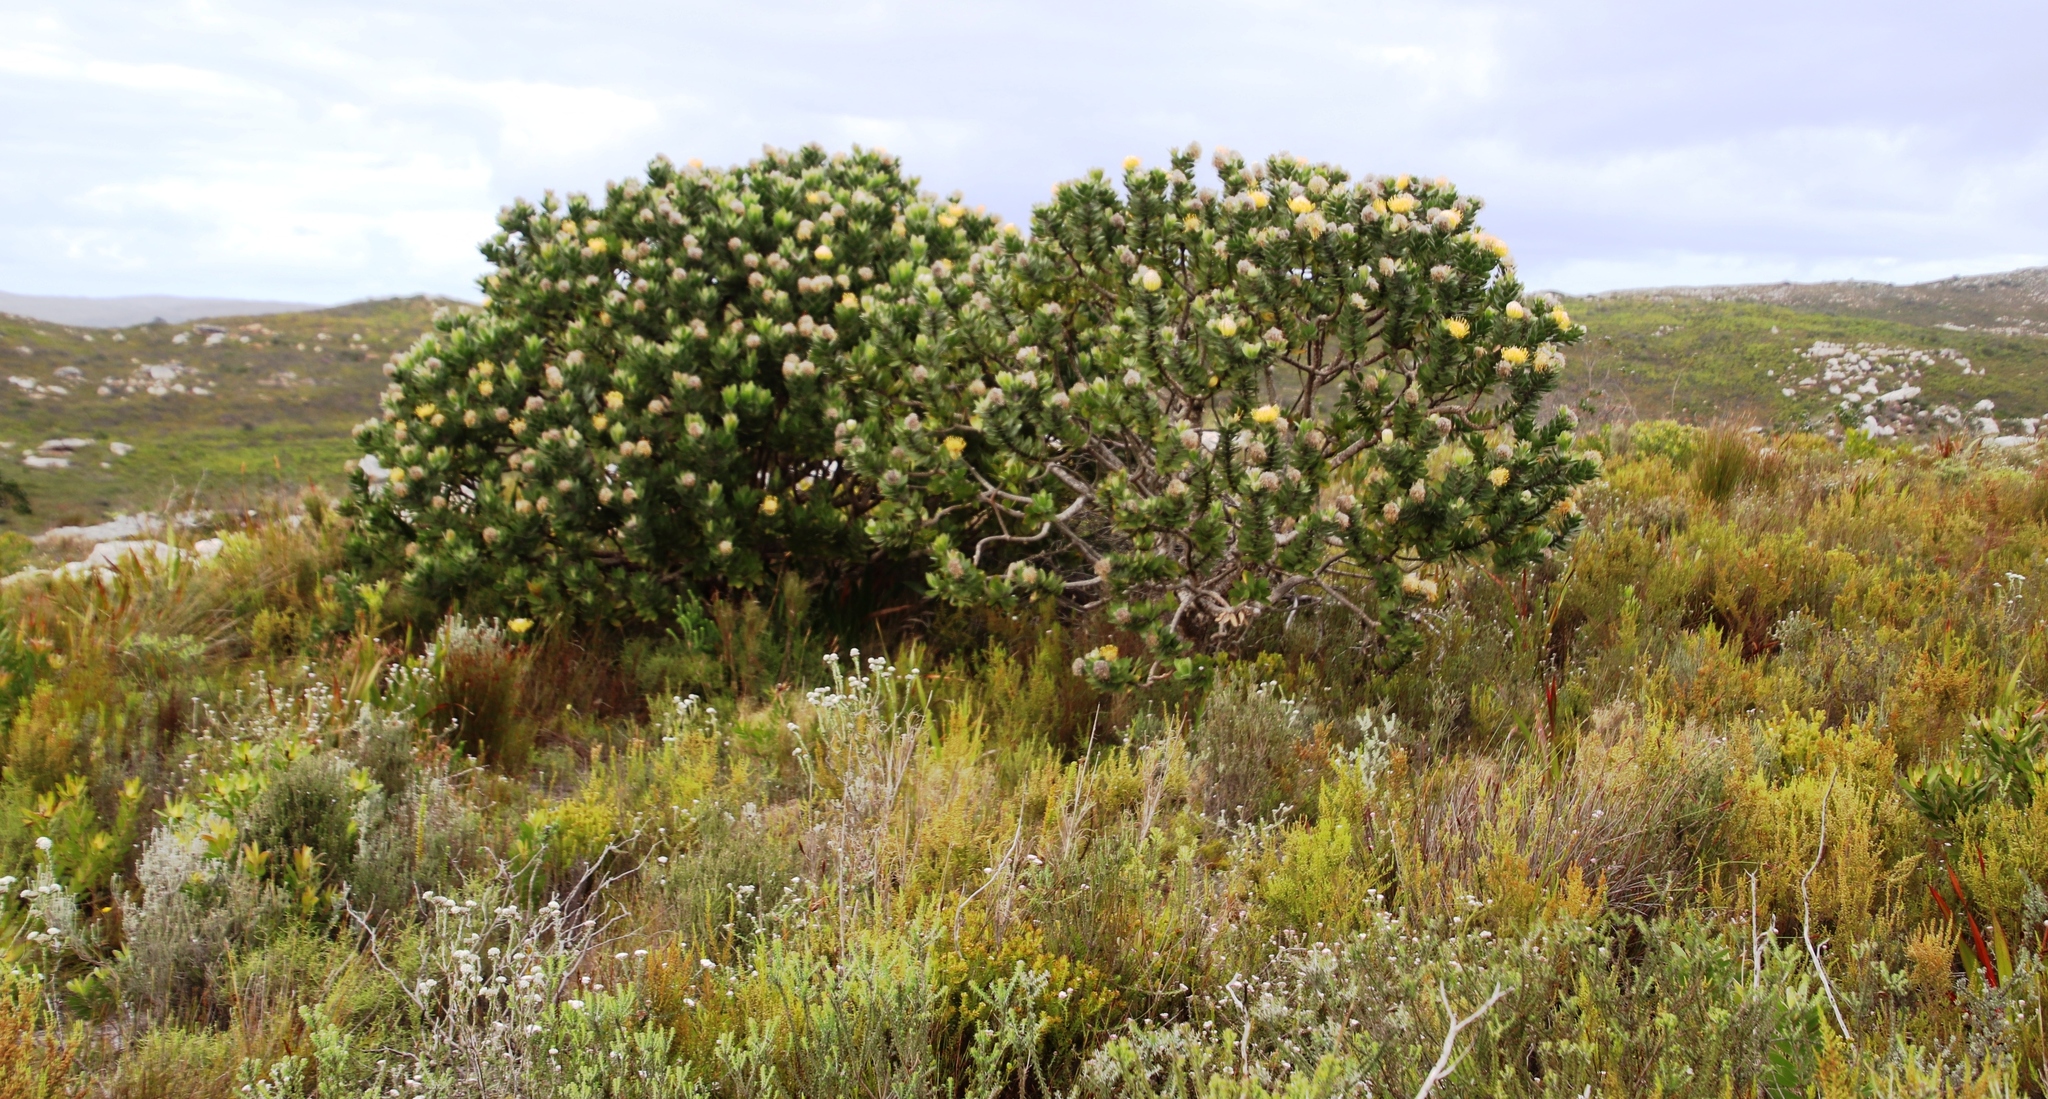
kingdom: Plantae
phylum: Tracheophyta
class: Magnoliopsida
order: Proteales
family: Proteaceae
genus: Leucospermum
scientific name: Leucospermum conocarpodendron
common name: Tree pincushion
